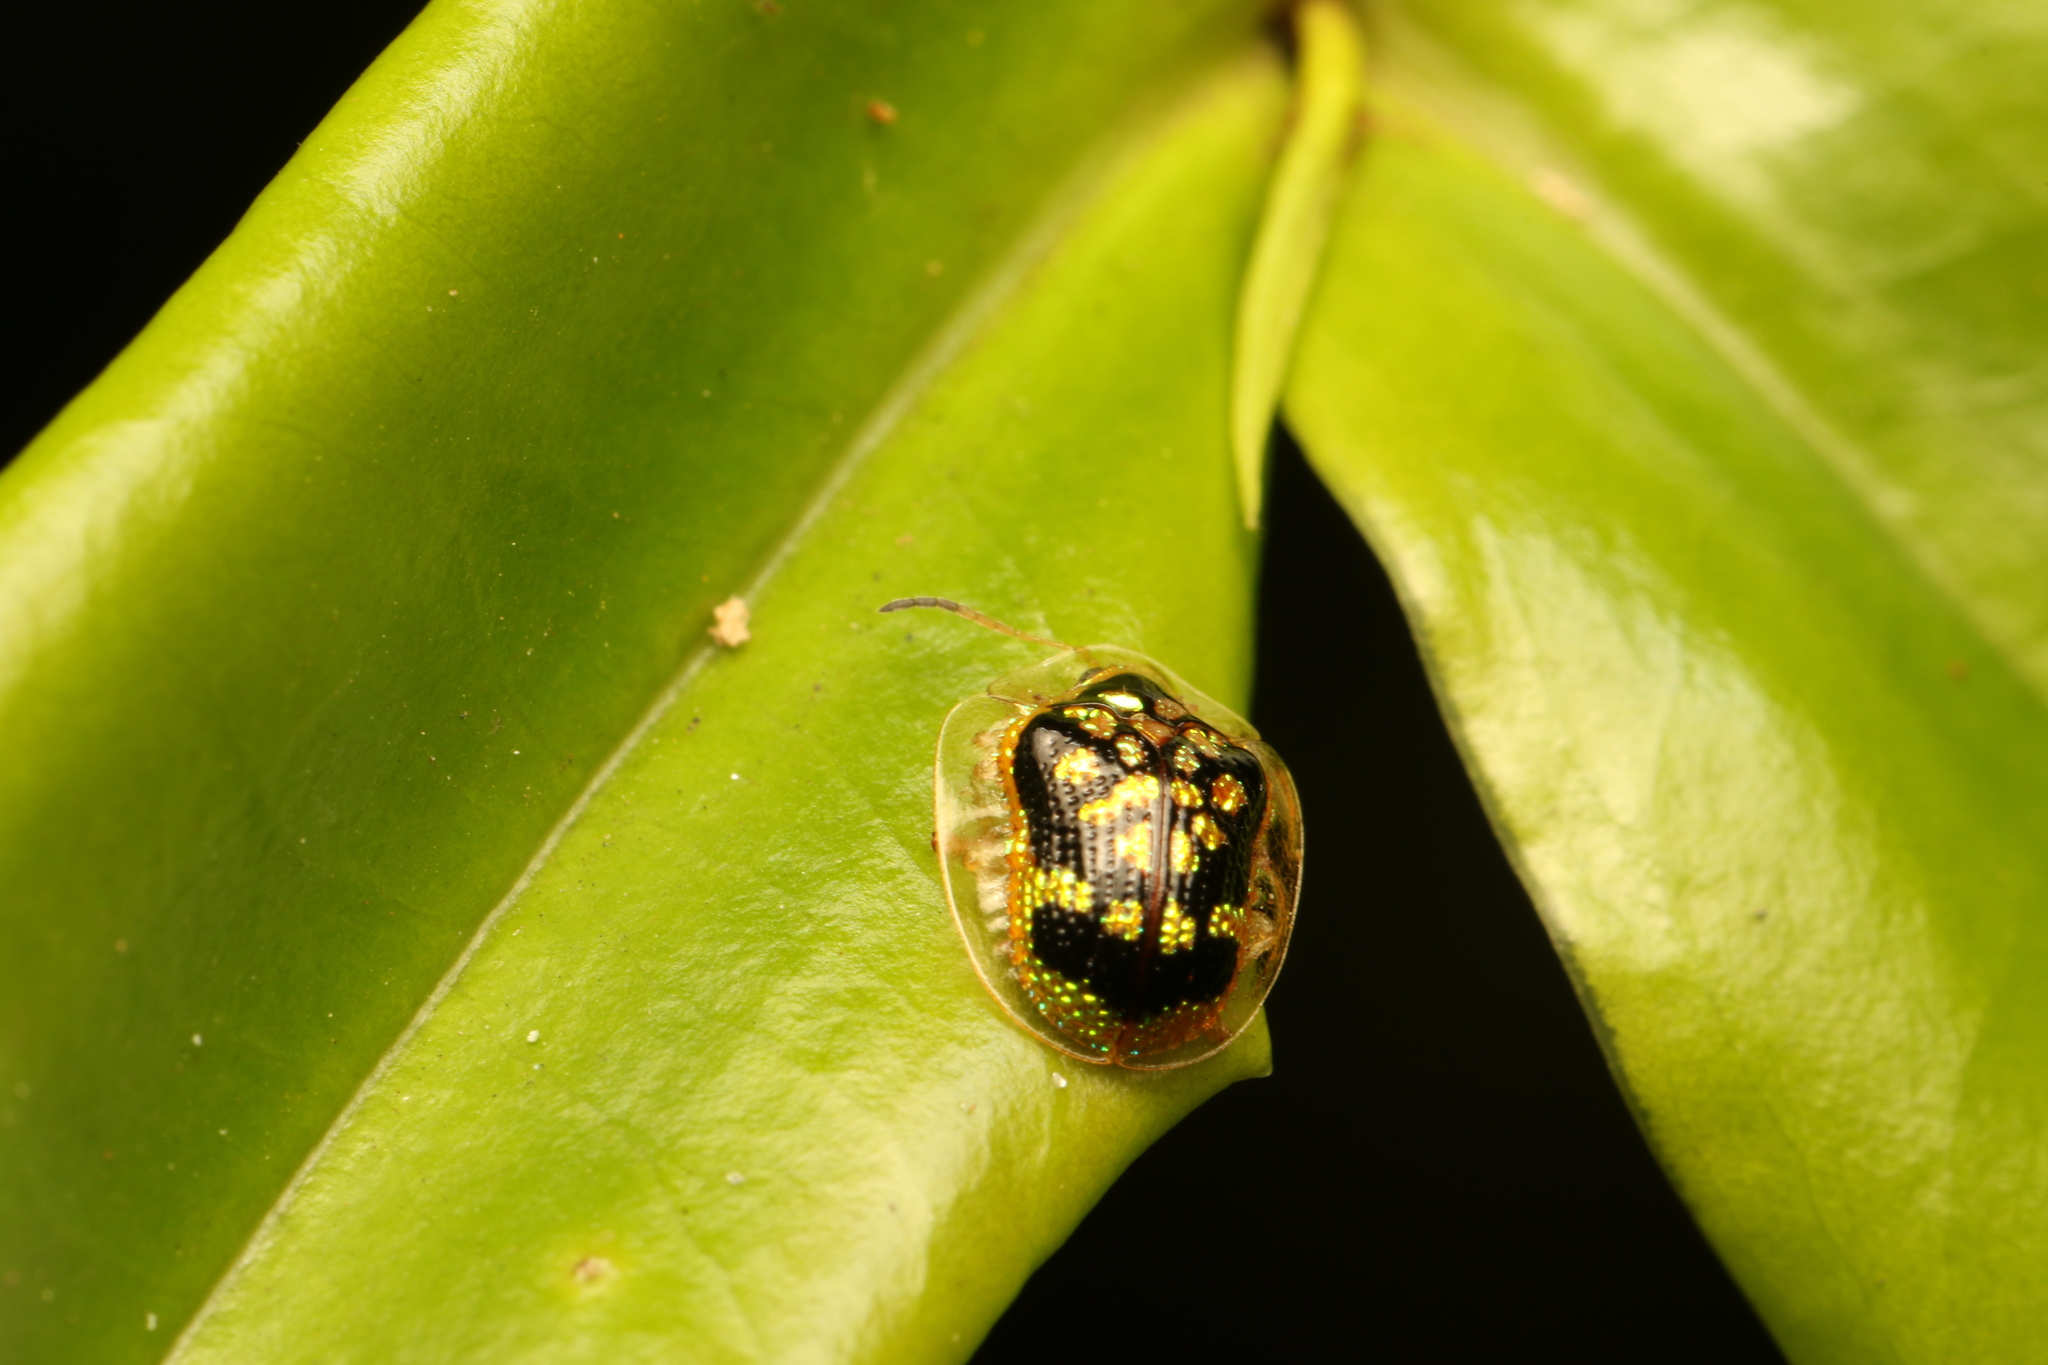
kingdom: Animalia
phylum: Arthropoda
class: Insecta
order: Coleoptera
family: Chrysomelidae
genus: Microctenochira
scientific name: Microctenochira brasiliensis
